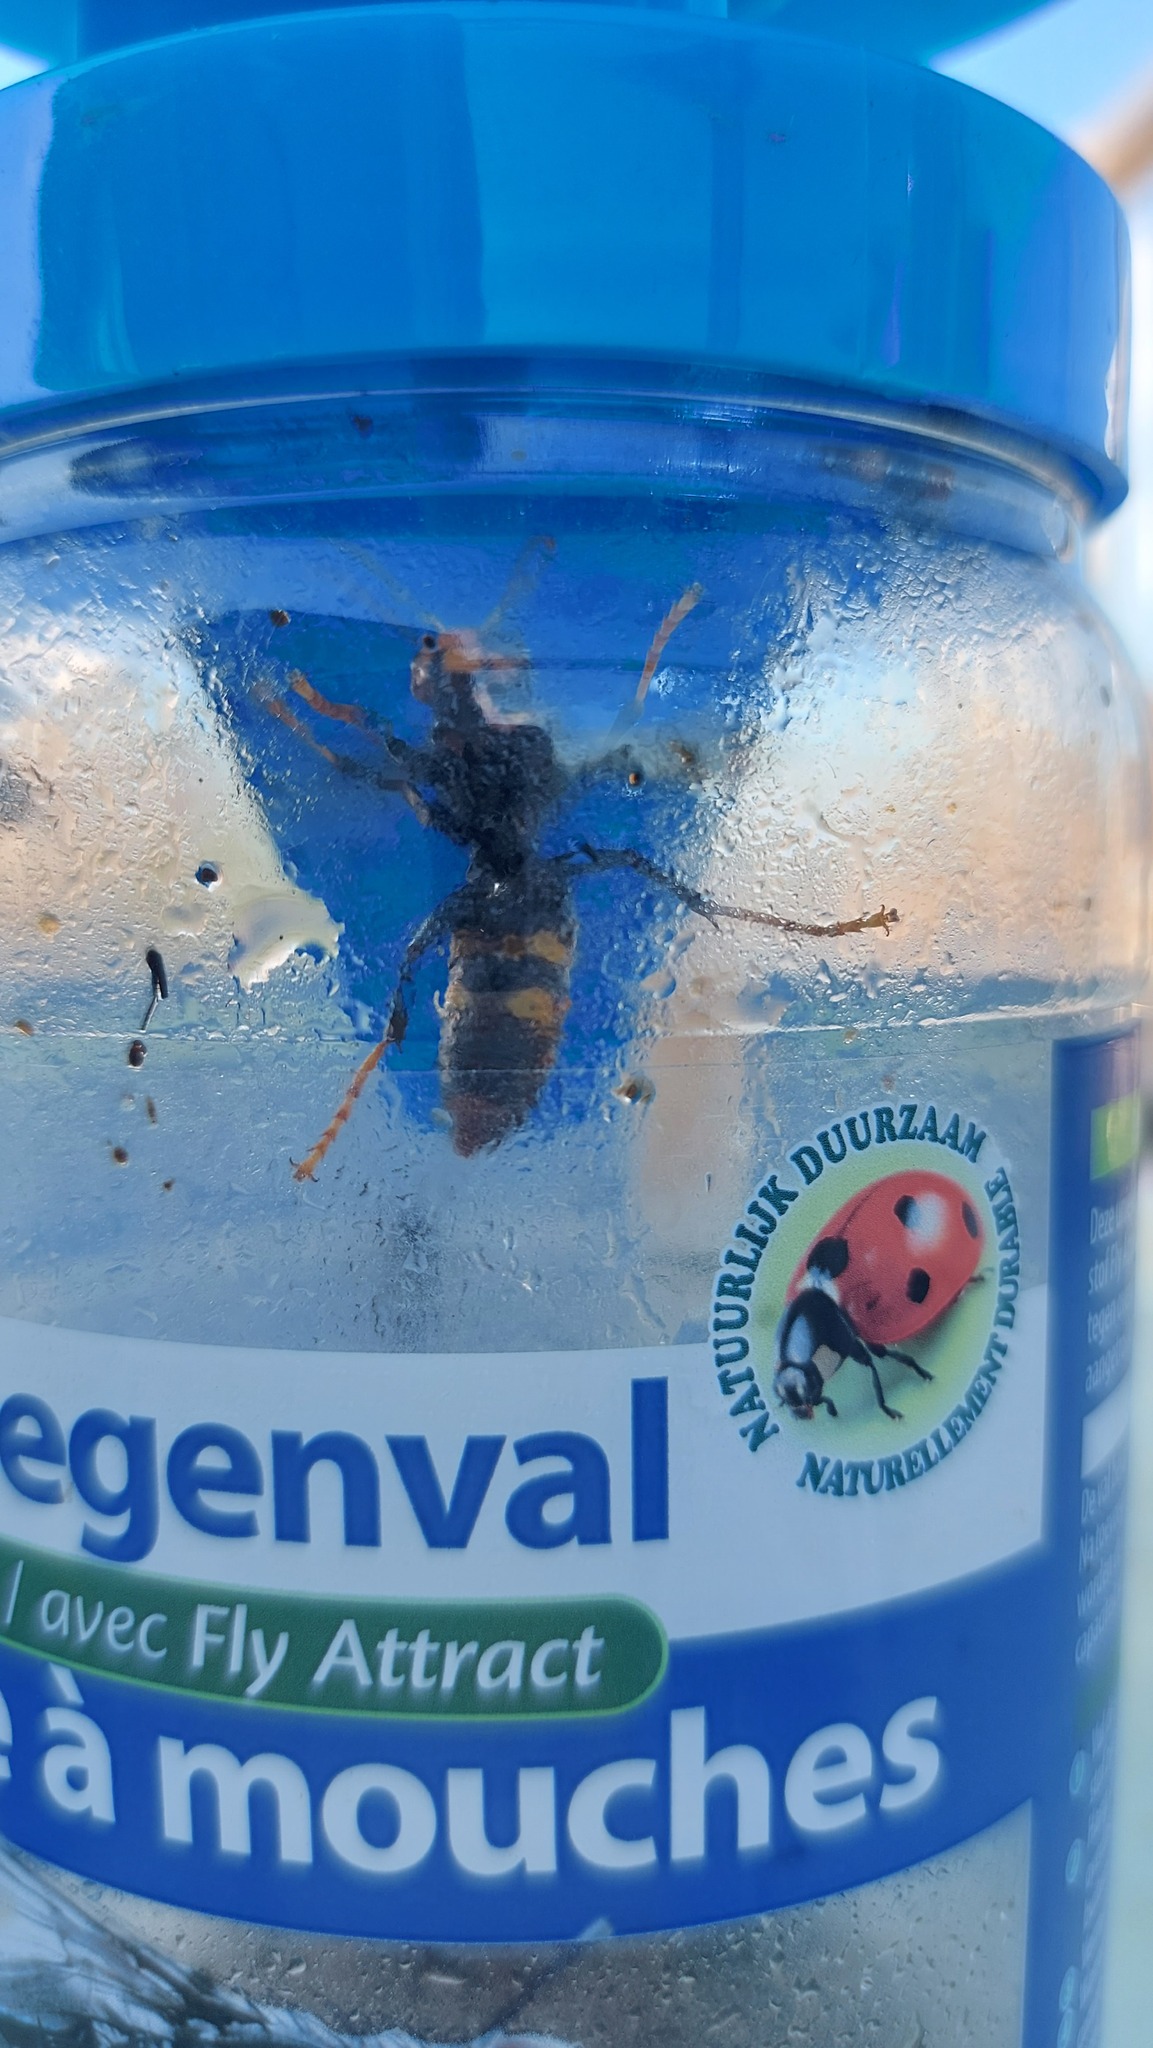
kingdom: Animalia
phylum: Arthropoda
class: Insecta
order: Hymenoptera
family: Vespidae
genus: Vespa
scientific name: Vespa velutina
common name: Asian hornet
